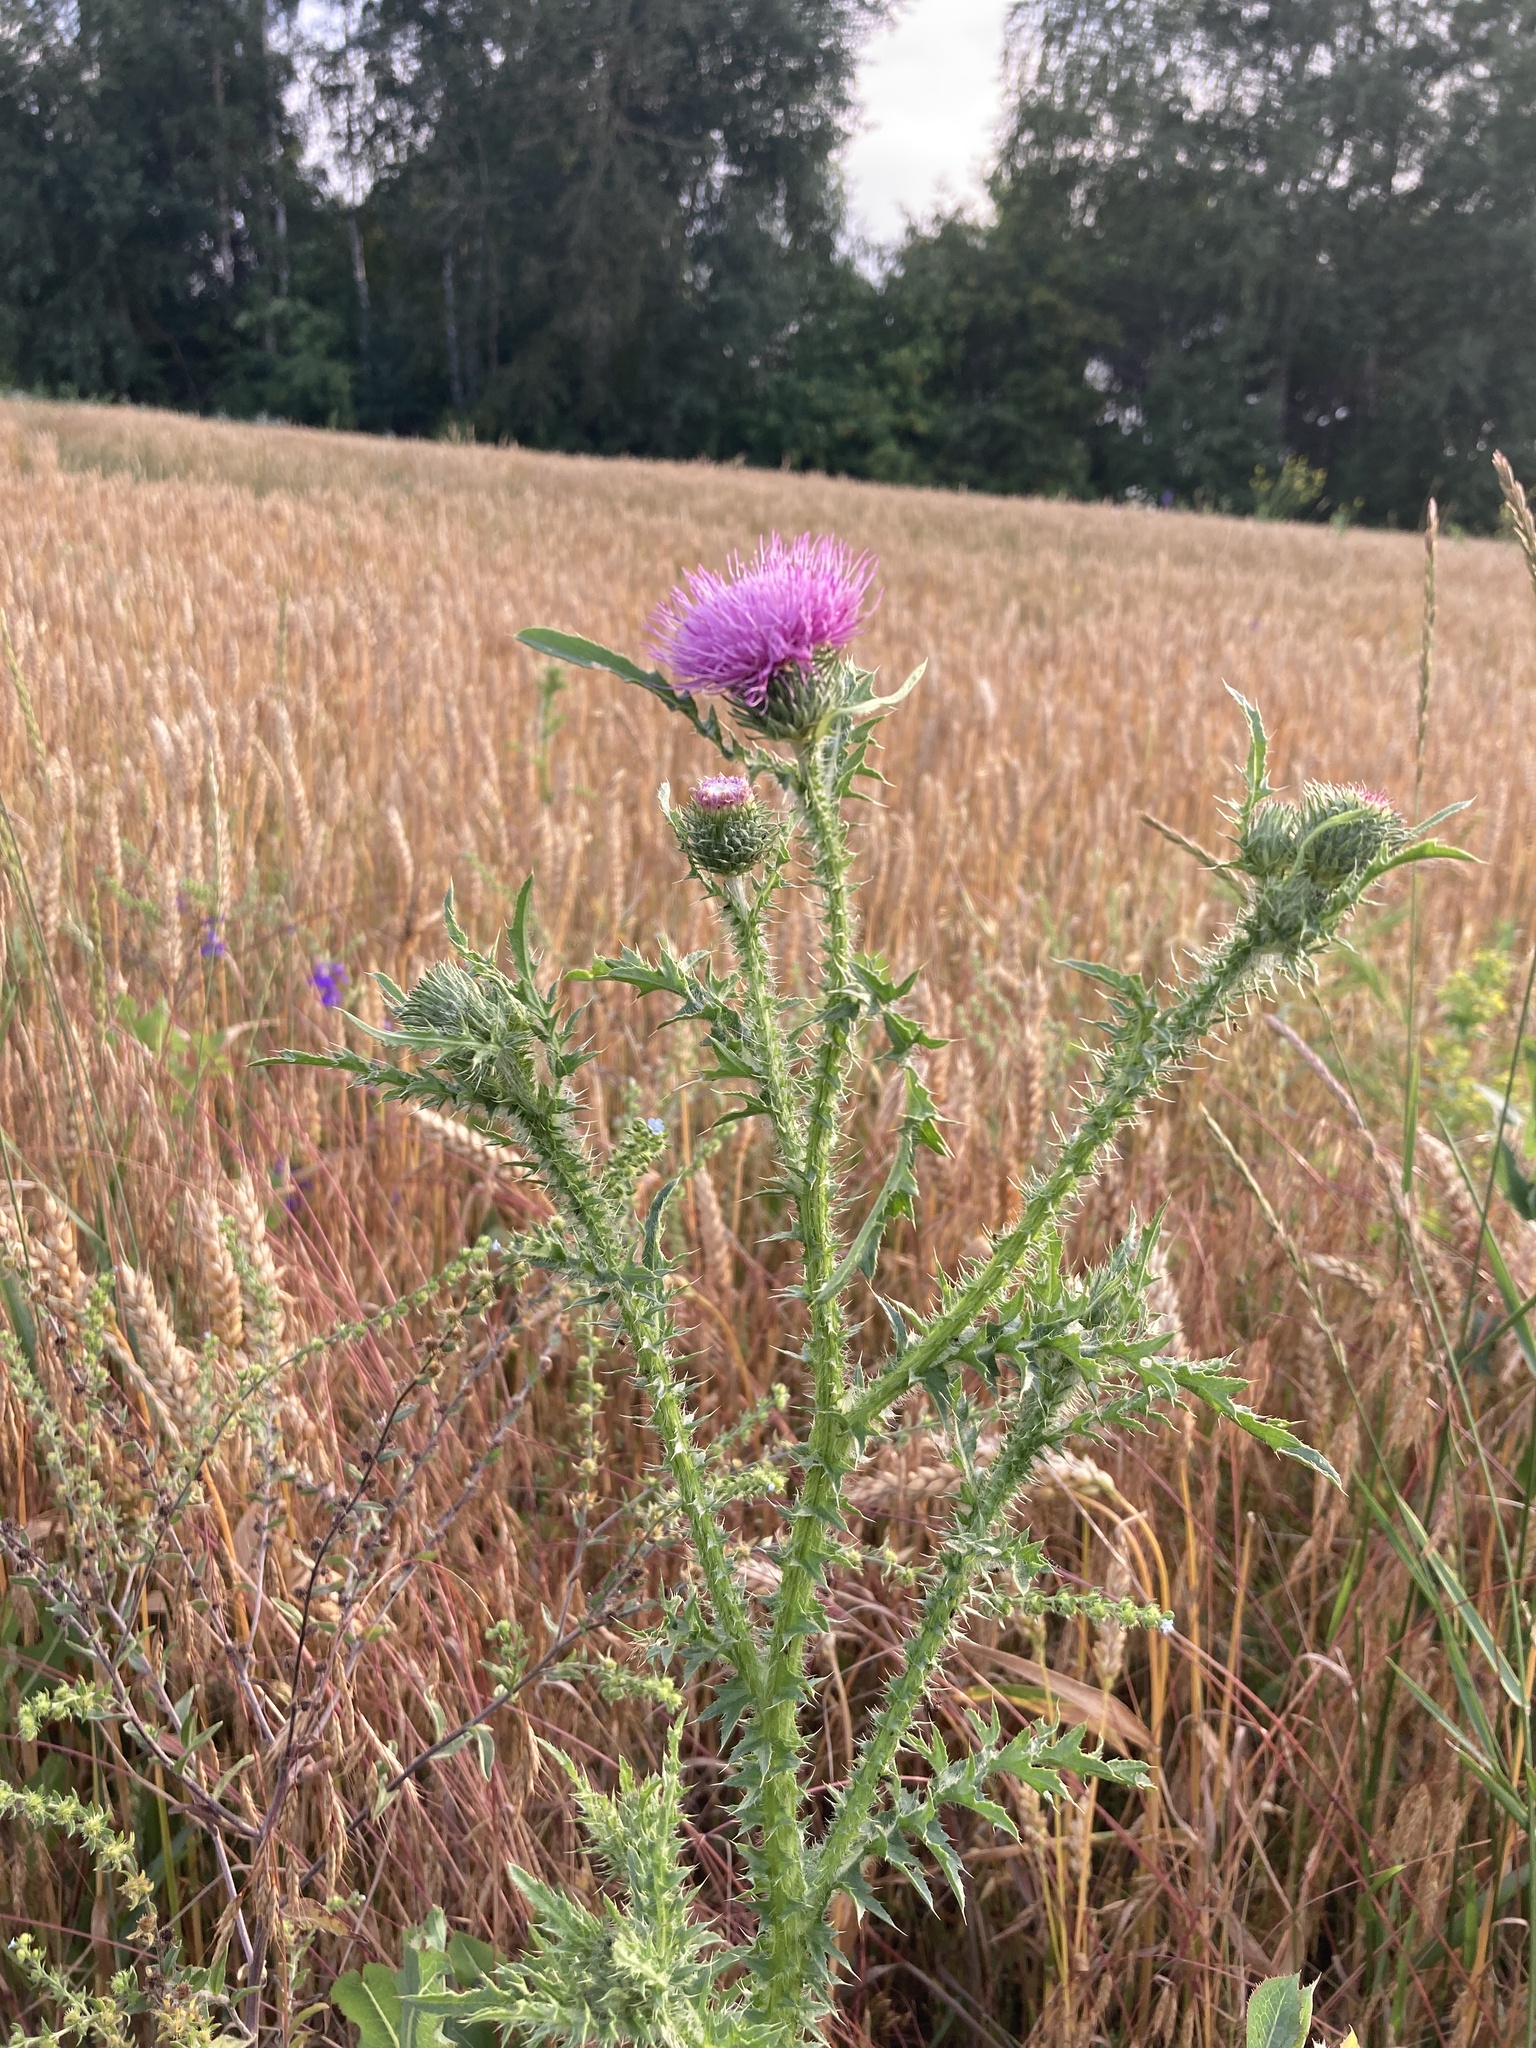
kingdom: Plantae
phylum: Tracheophyta
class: Magnoliopsida
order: Asterales
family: Asteraceae
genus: Carduus
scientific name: Carduus acanthoides
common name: Plumeless thistle
